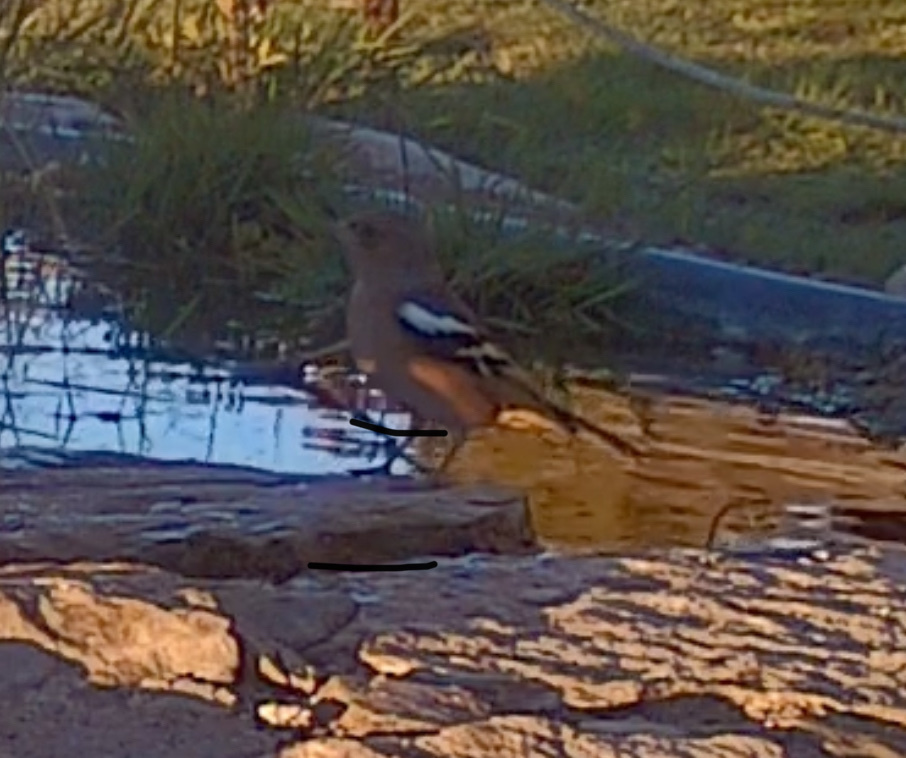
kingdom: Animalia
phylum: Chordata
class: Aves
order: Passeriformes
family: Fringillidae
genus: Fringilla
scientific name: Fringilla coelebs
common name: Common chaffinch
